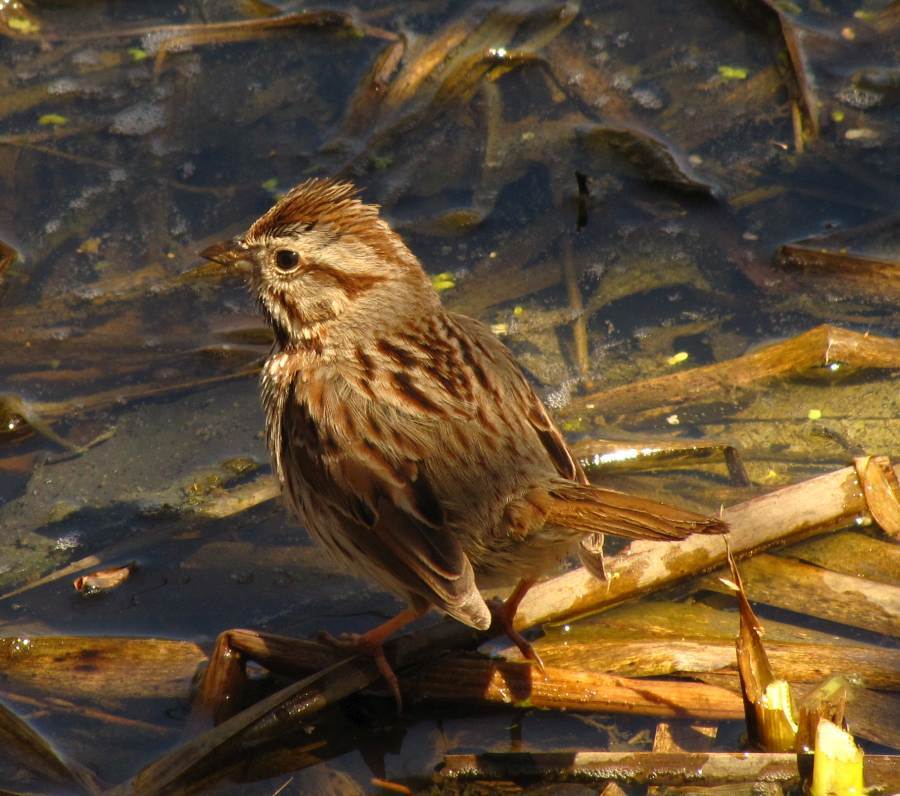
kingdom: Animalia
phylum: Chordata
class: Aves
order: Passeriformes
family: Passerellidae
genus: Melospiza
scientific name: Melospiza melodia
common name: Song sparrow
